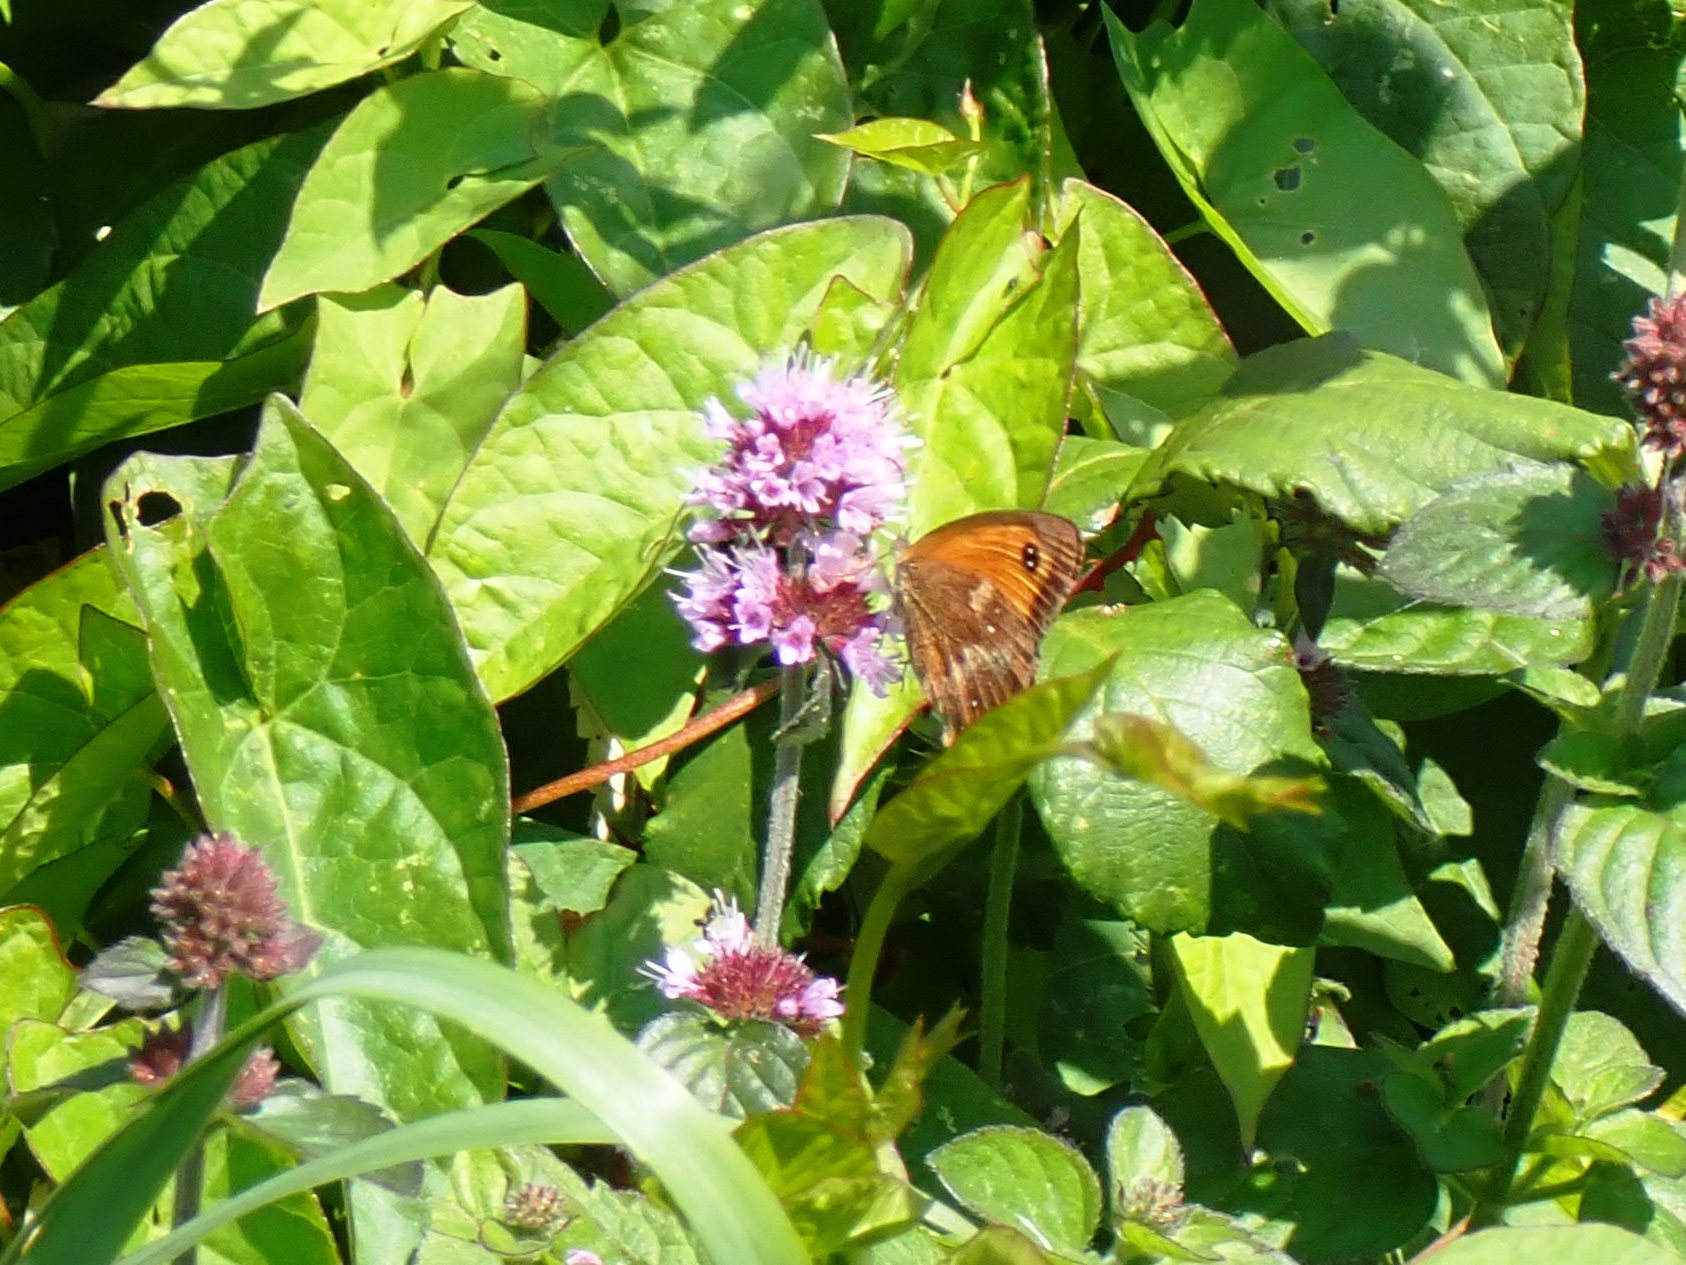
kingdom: Animalia
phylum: Arthropoda
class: Insecta
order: Lepidoptera
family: Nymphalidae
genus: Pyronia
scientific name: Pyronia tithonus
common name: Gatekeeper
